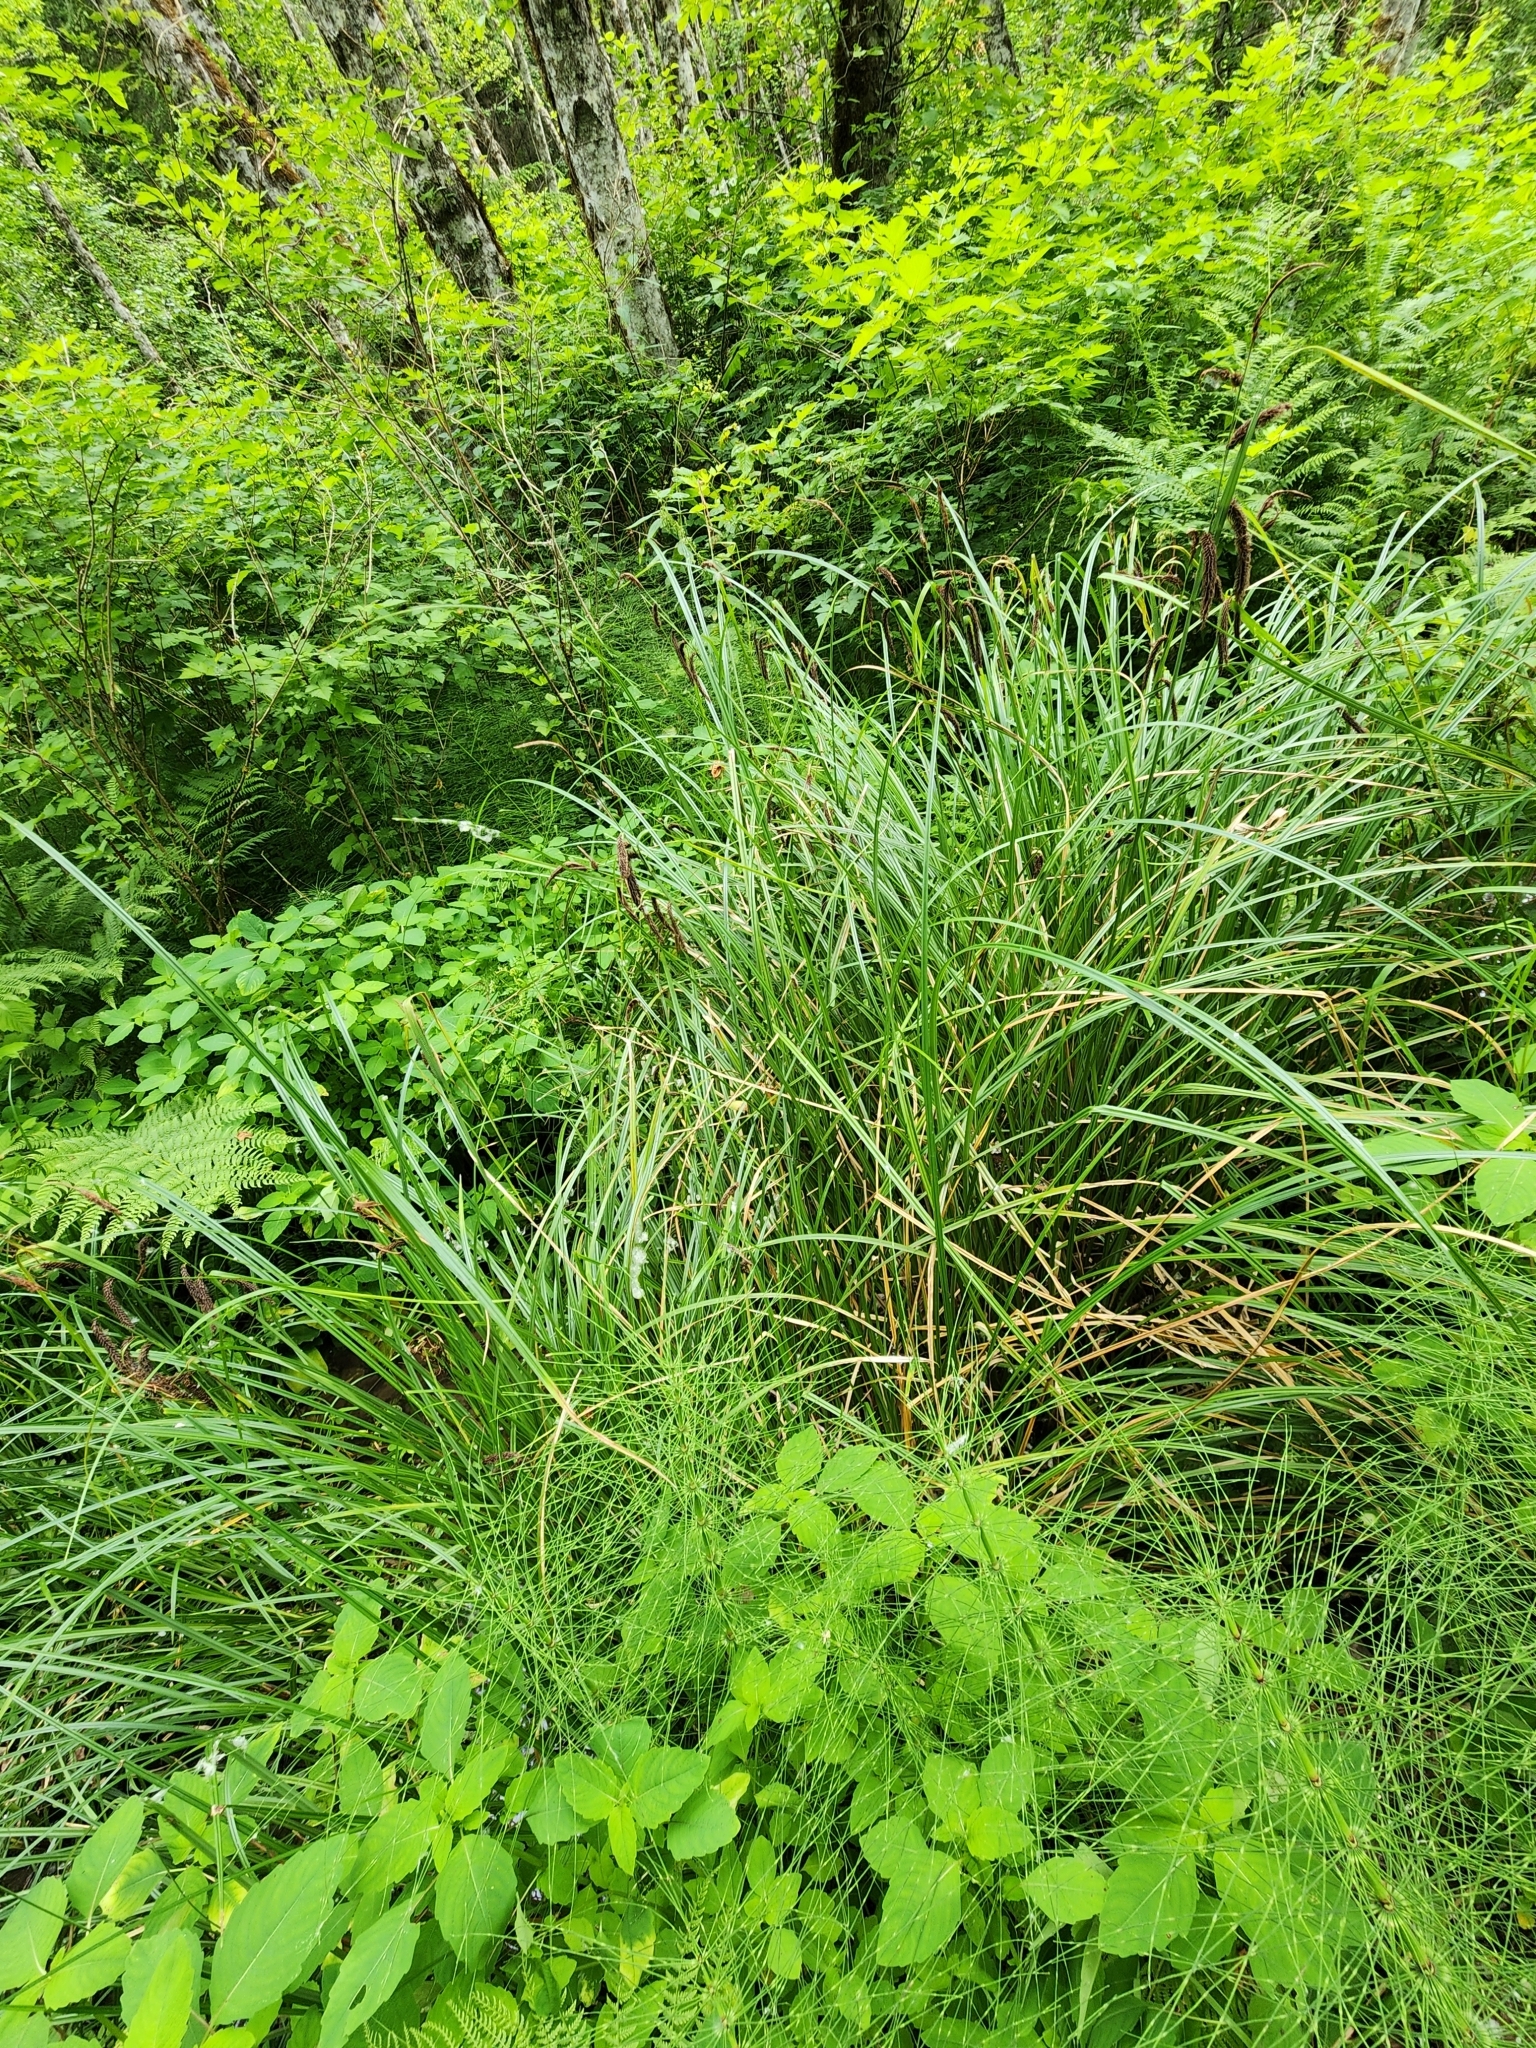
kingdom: Plantae
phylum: Tracheophyta
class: Liliopsida
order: Poales
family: Cyperaceae
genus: Carex
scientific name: Carex obnupta
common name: Slough sedge
